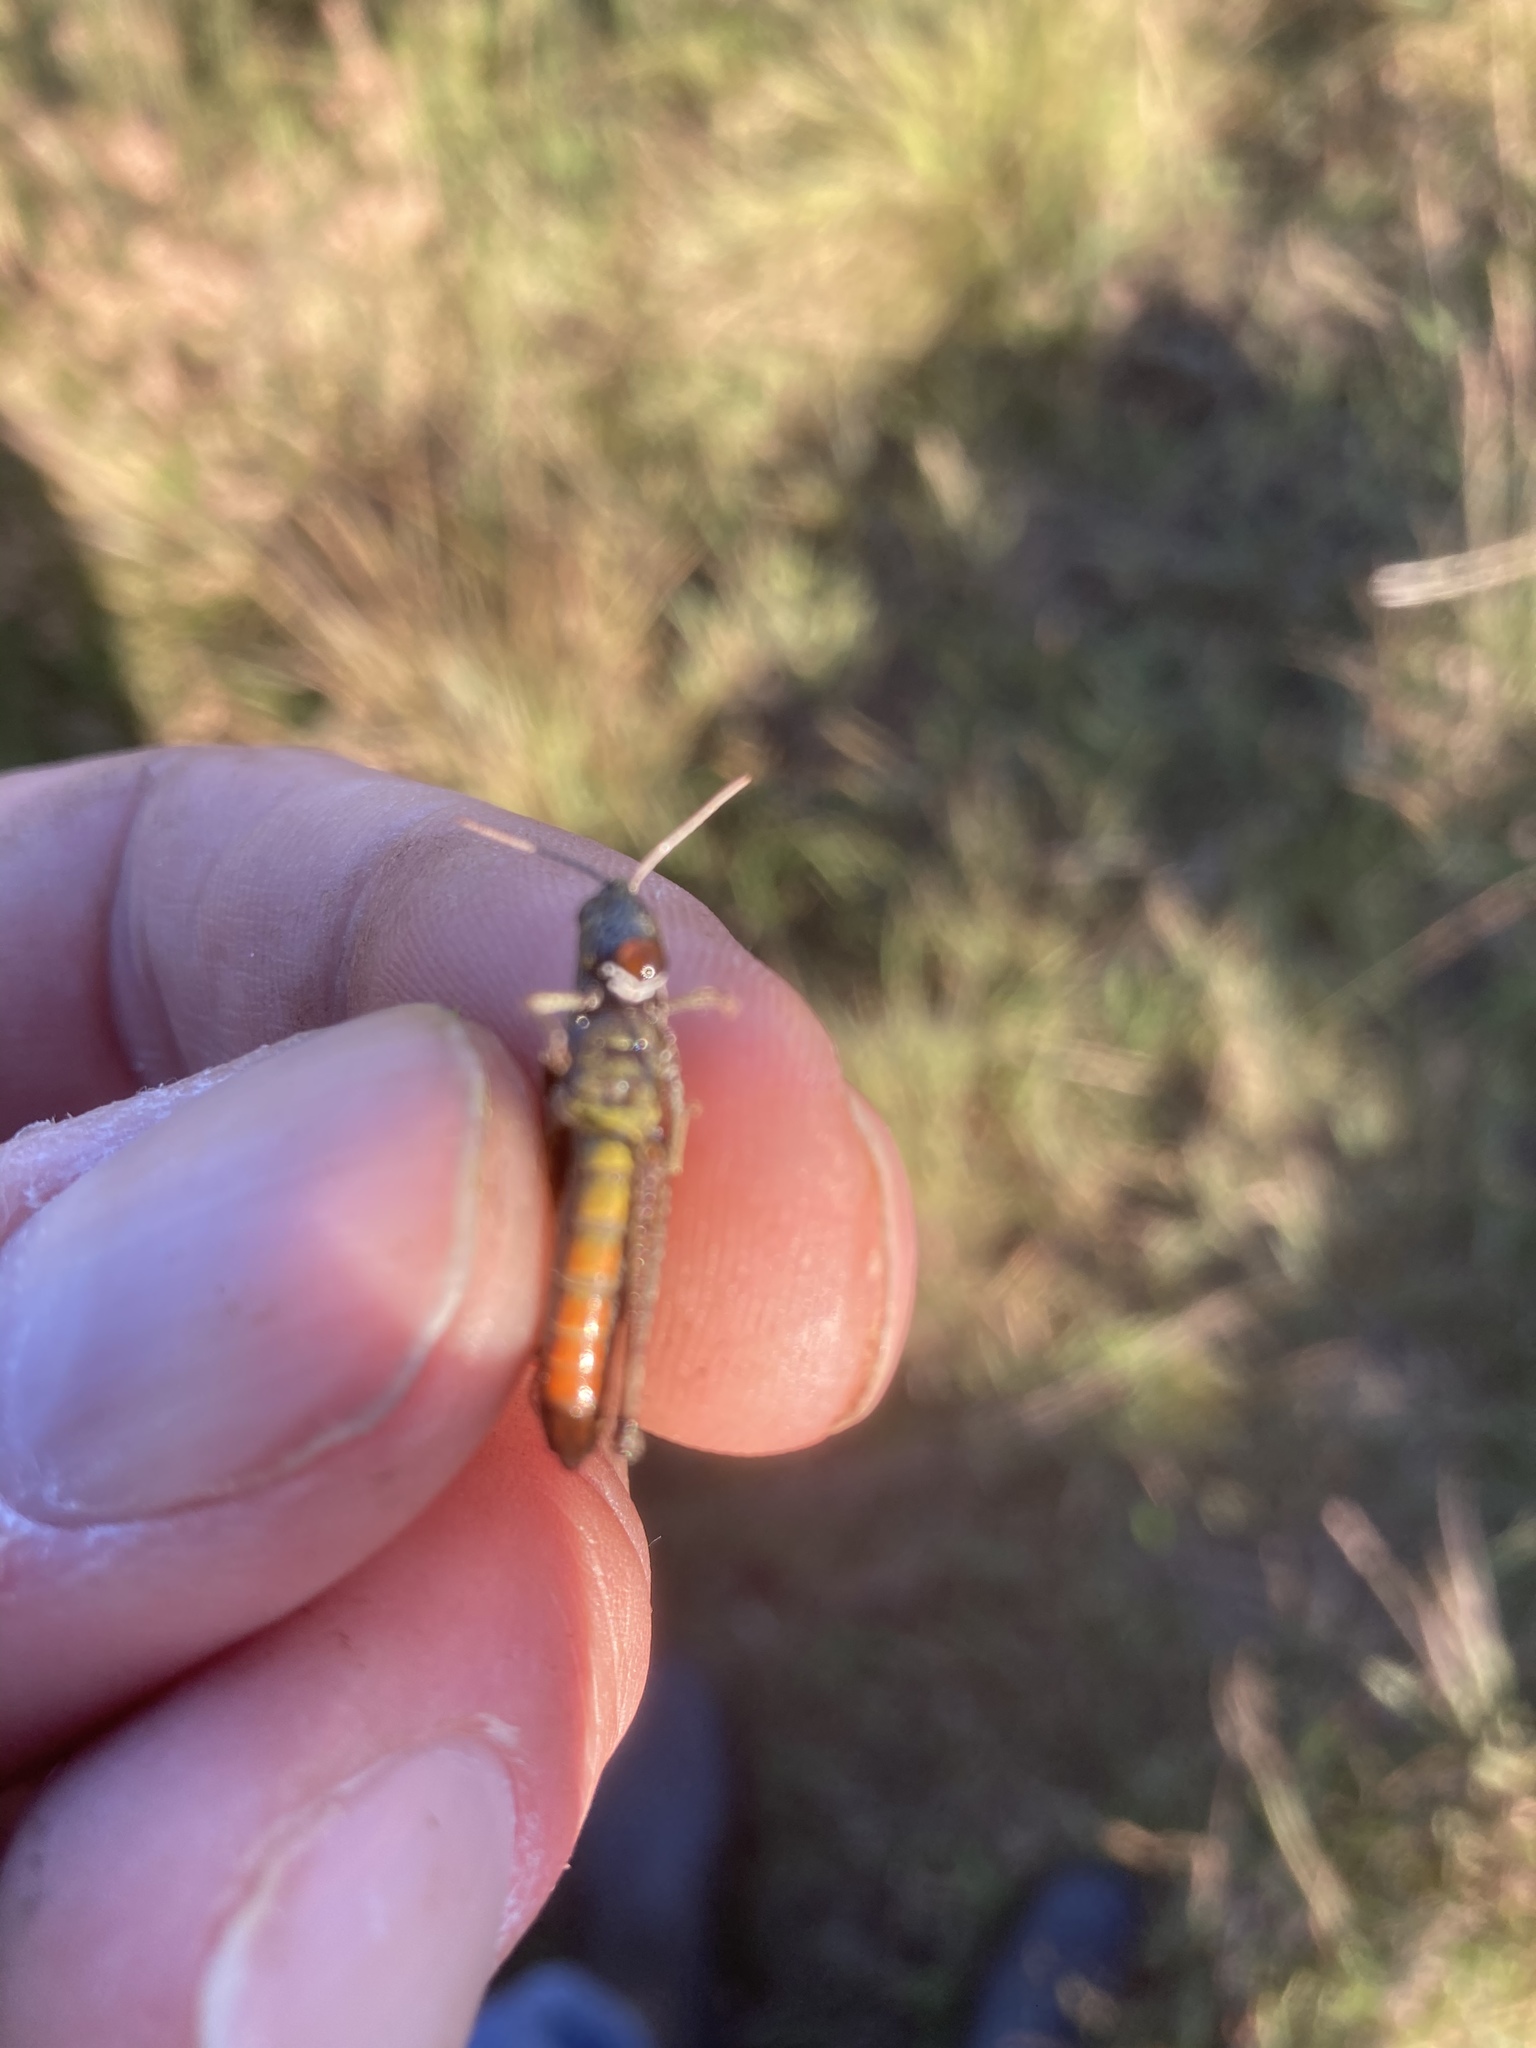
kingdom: Animalia
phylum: Arthropoda
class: Insecta
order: Orthoptera
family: Acrididae
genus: Omocestus
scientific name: Omocestus rufipes
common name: Woodland grasshopper
